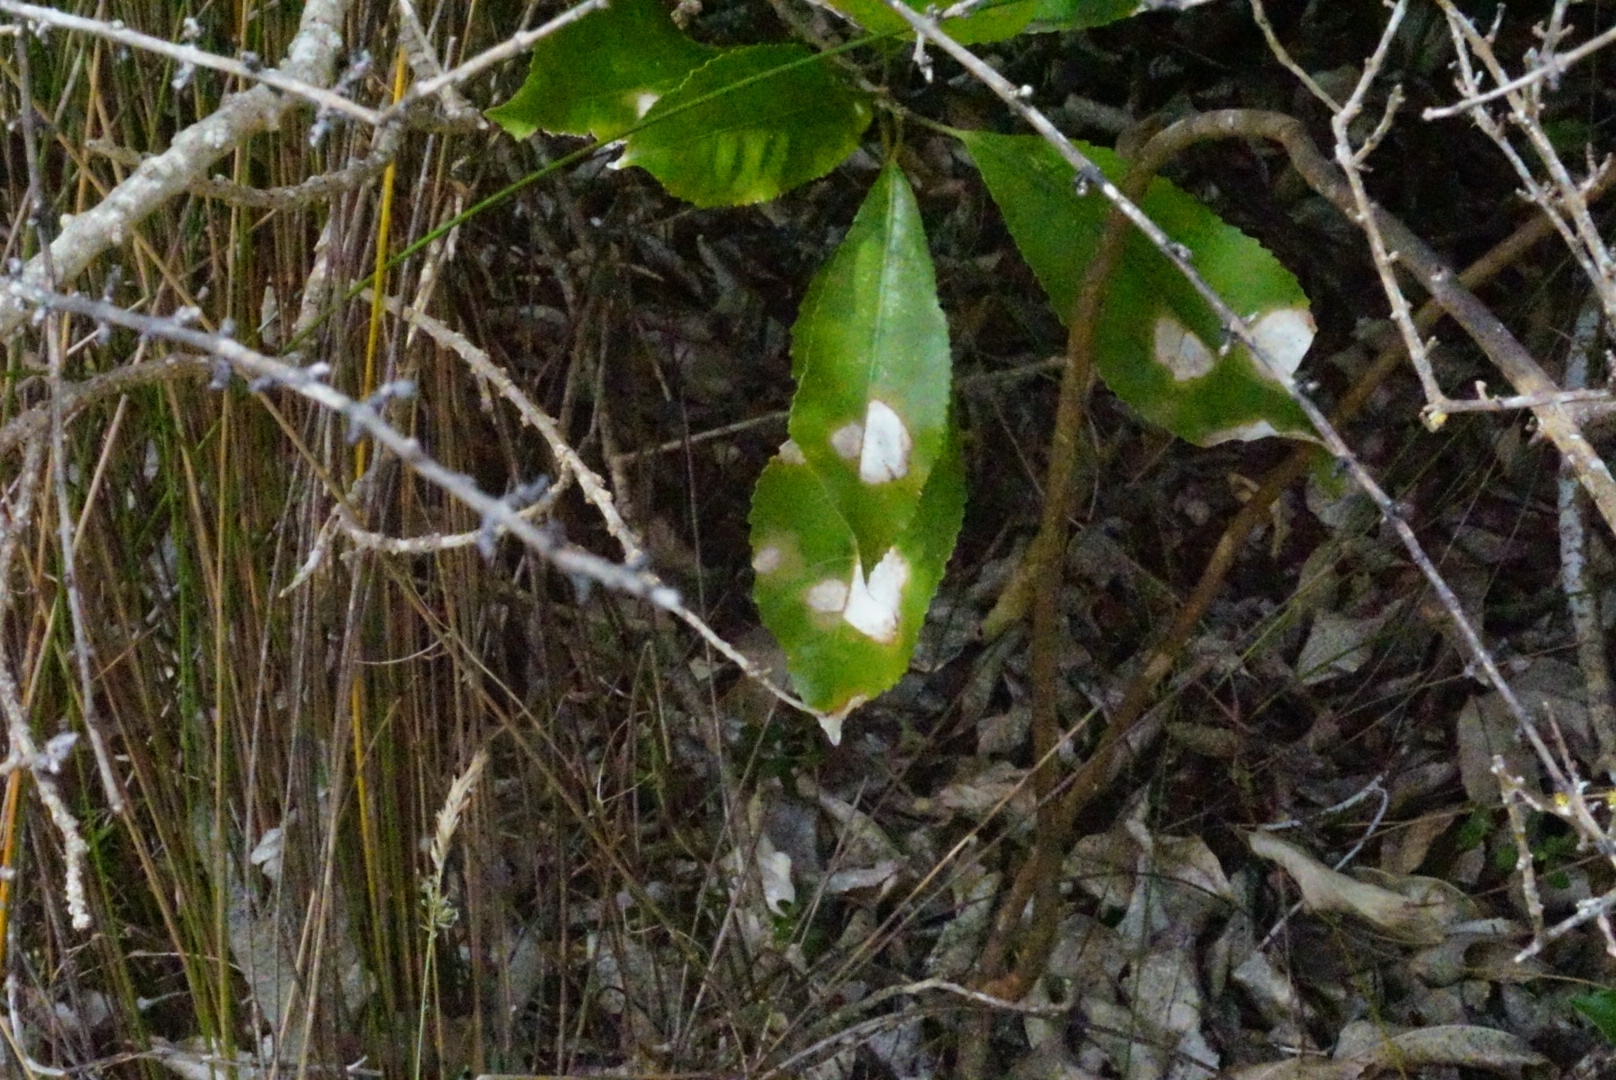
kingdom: Plantae
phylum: Chlorophyta
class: Ulvophyceae
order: Trentepohliales
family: Trentepohliaceae
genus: Cephaleuros
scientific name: Cephaleuros
